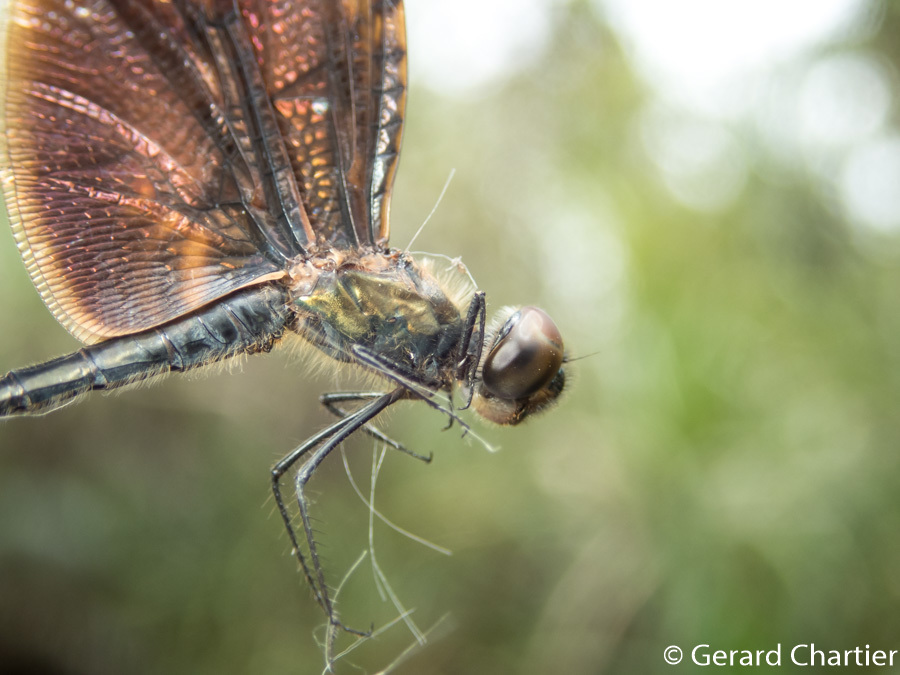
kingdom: Animalia
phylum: Arthropoda
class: Insecta
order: Odonata
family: Libellulidae
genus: Rhyothemis
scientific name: Rhyothemis obsolescens
